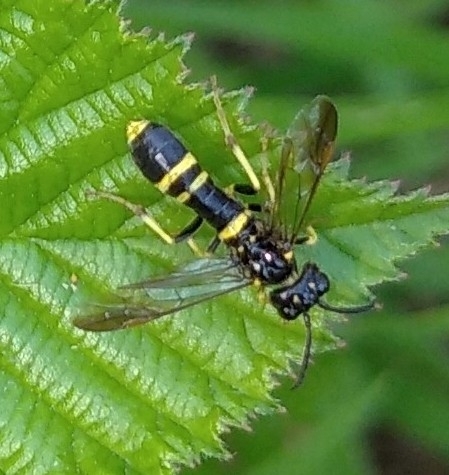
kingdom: Animalia
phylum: Arthropoda
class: Insecta
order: Hymenoptera
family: Tenthredinidae
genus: Allantus
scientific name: Allantus viennensis
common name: Sawfly
